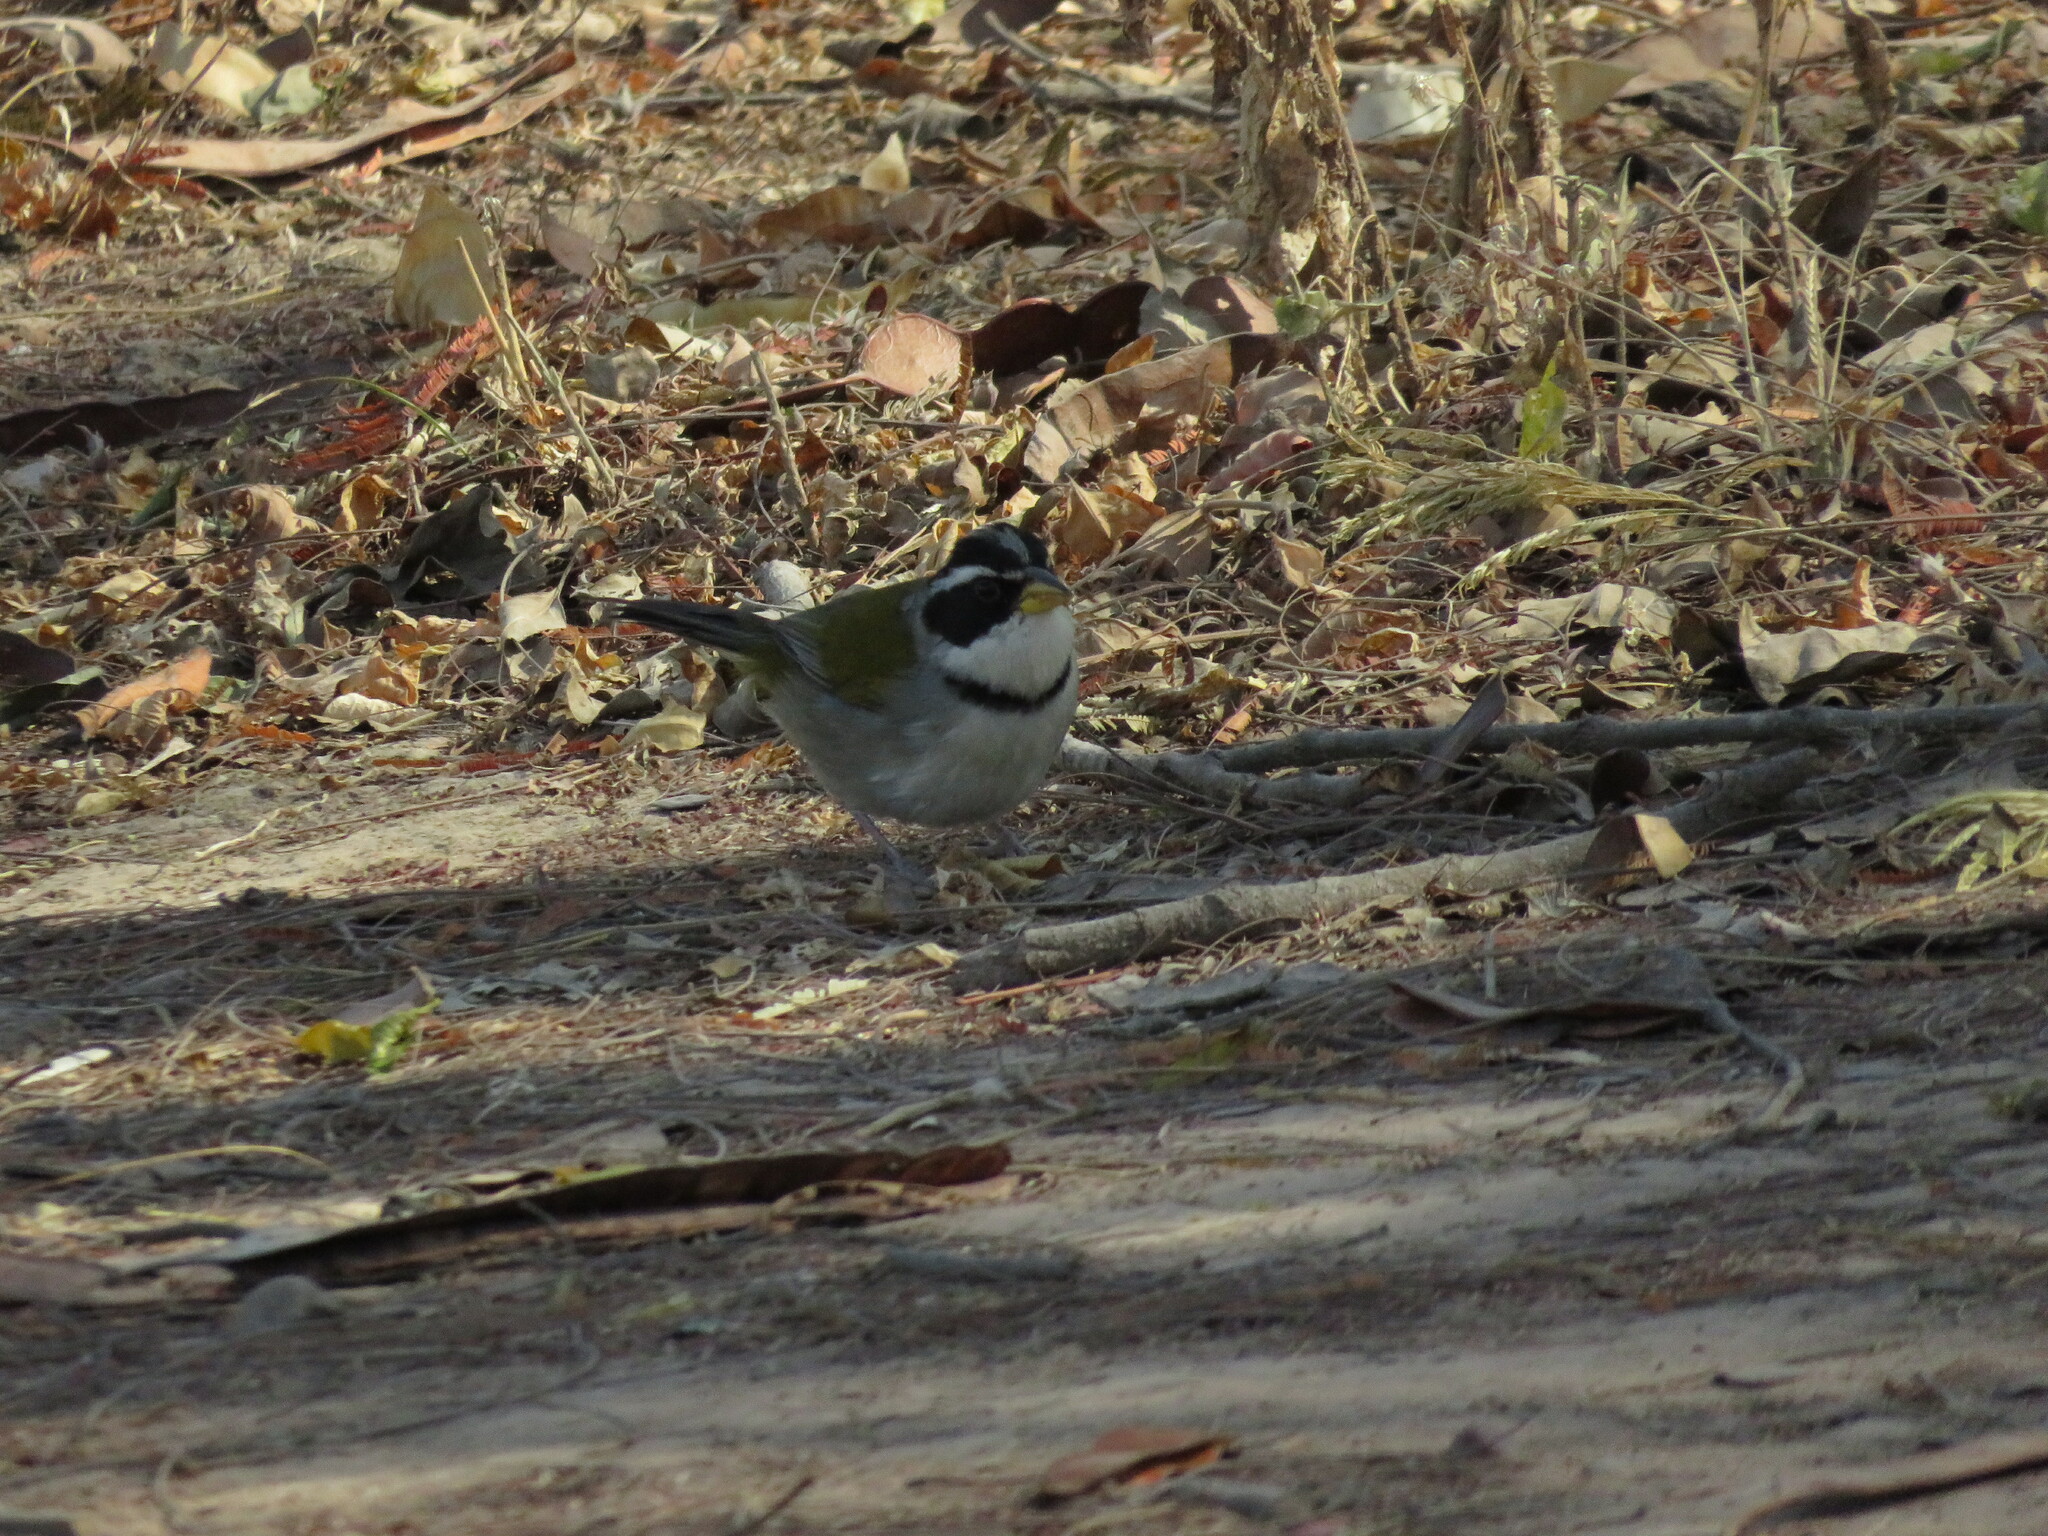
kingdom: Animalia
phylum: Chordata
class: Aves
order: Passeriformes
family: Passerellidae
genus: Arremon
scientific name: Arremon dorbignii
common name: Moss-backed sparrow
